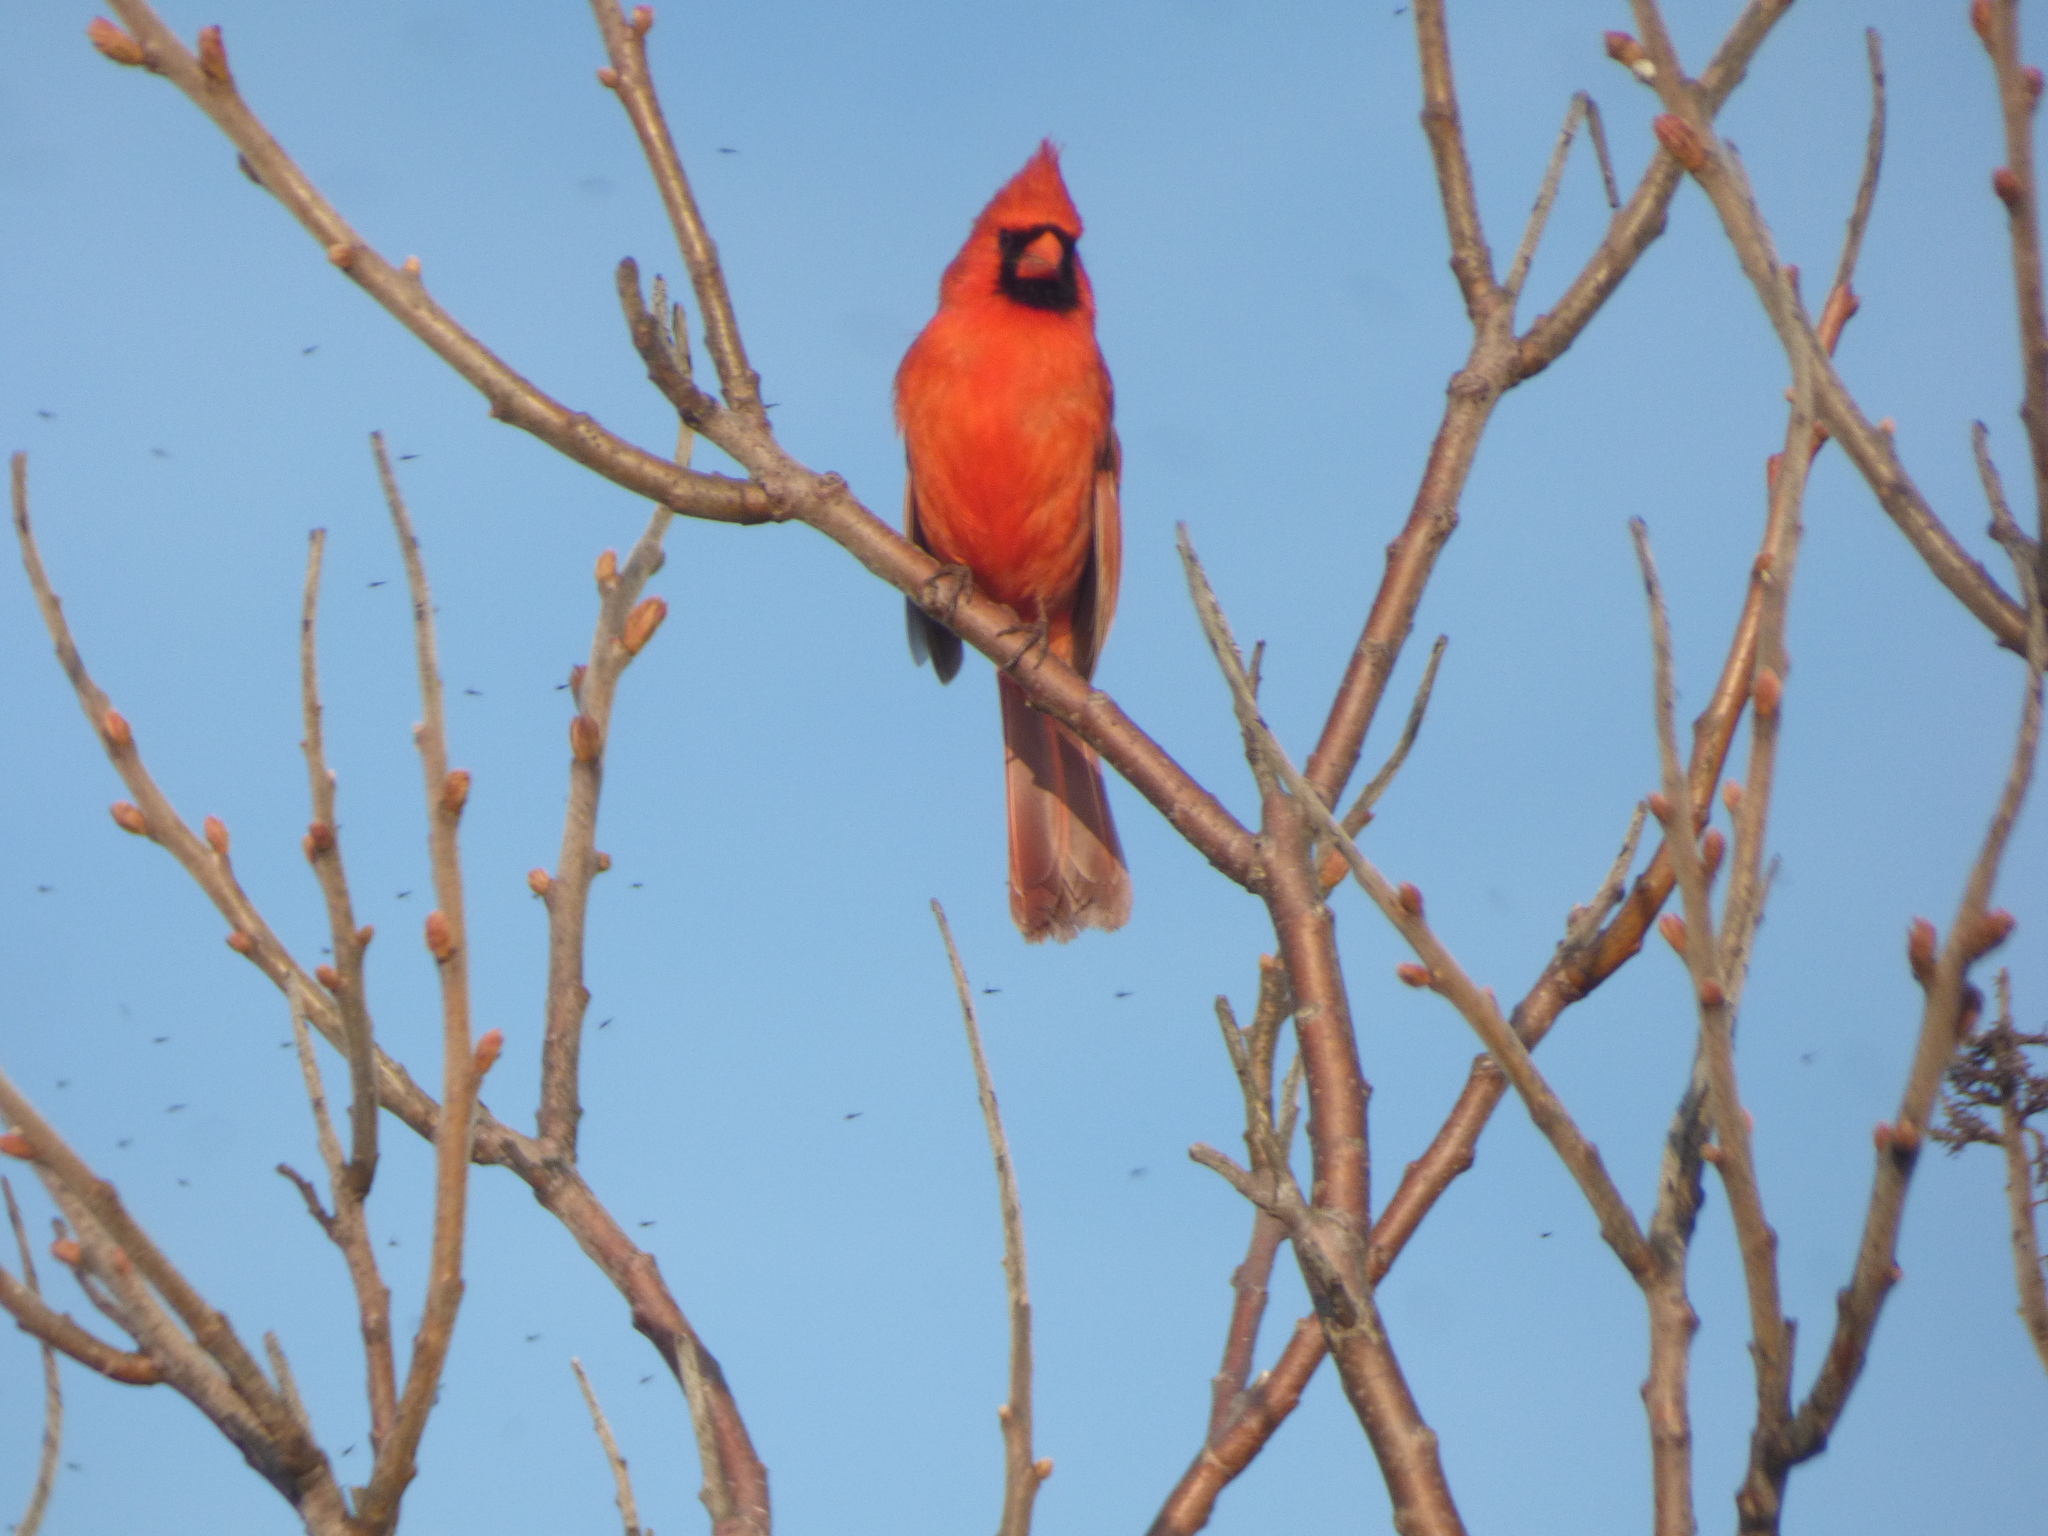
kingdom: Animalia
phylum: Chordata
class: Aves
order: Passeriformes
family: Cardinalidae
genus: Cardinalis
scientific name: Cardinalis cardinalis
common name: Northern cardinal
